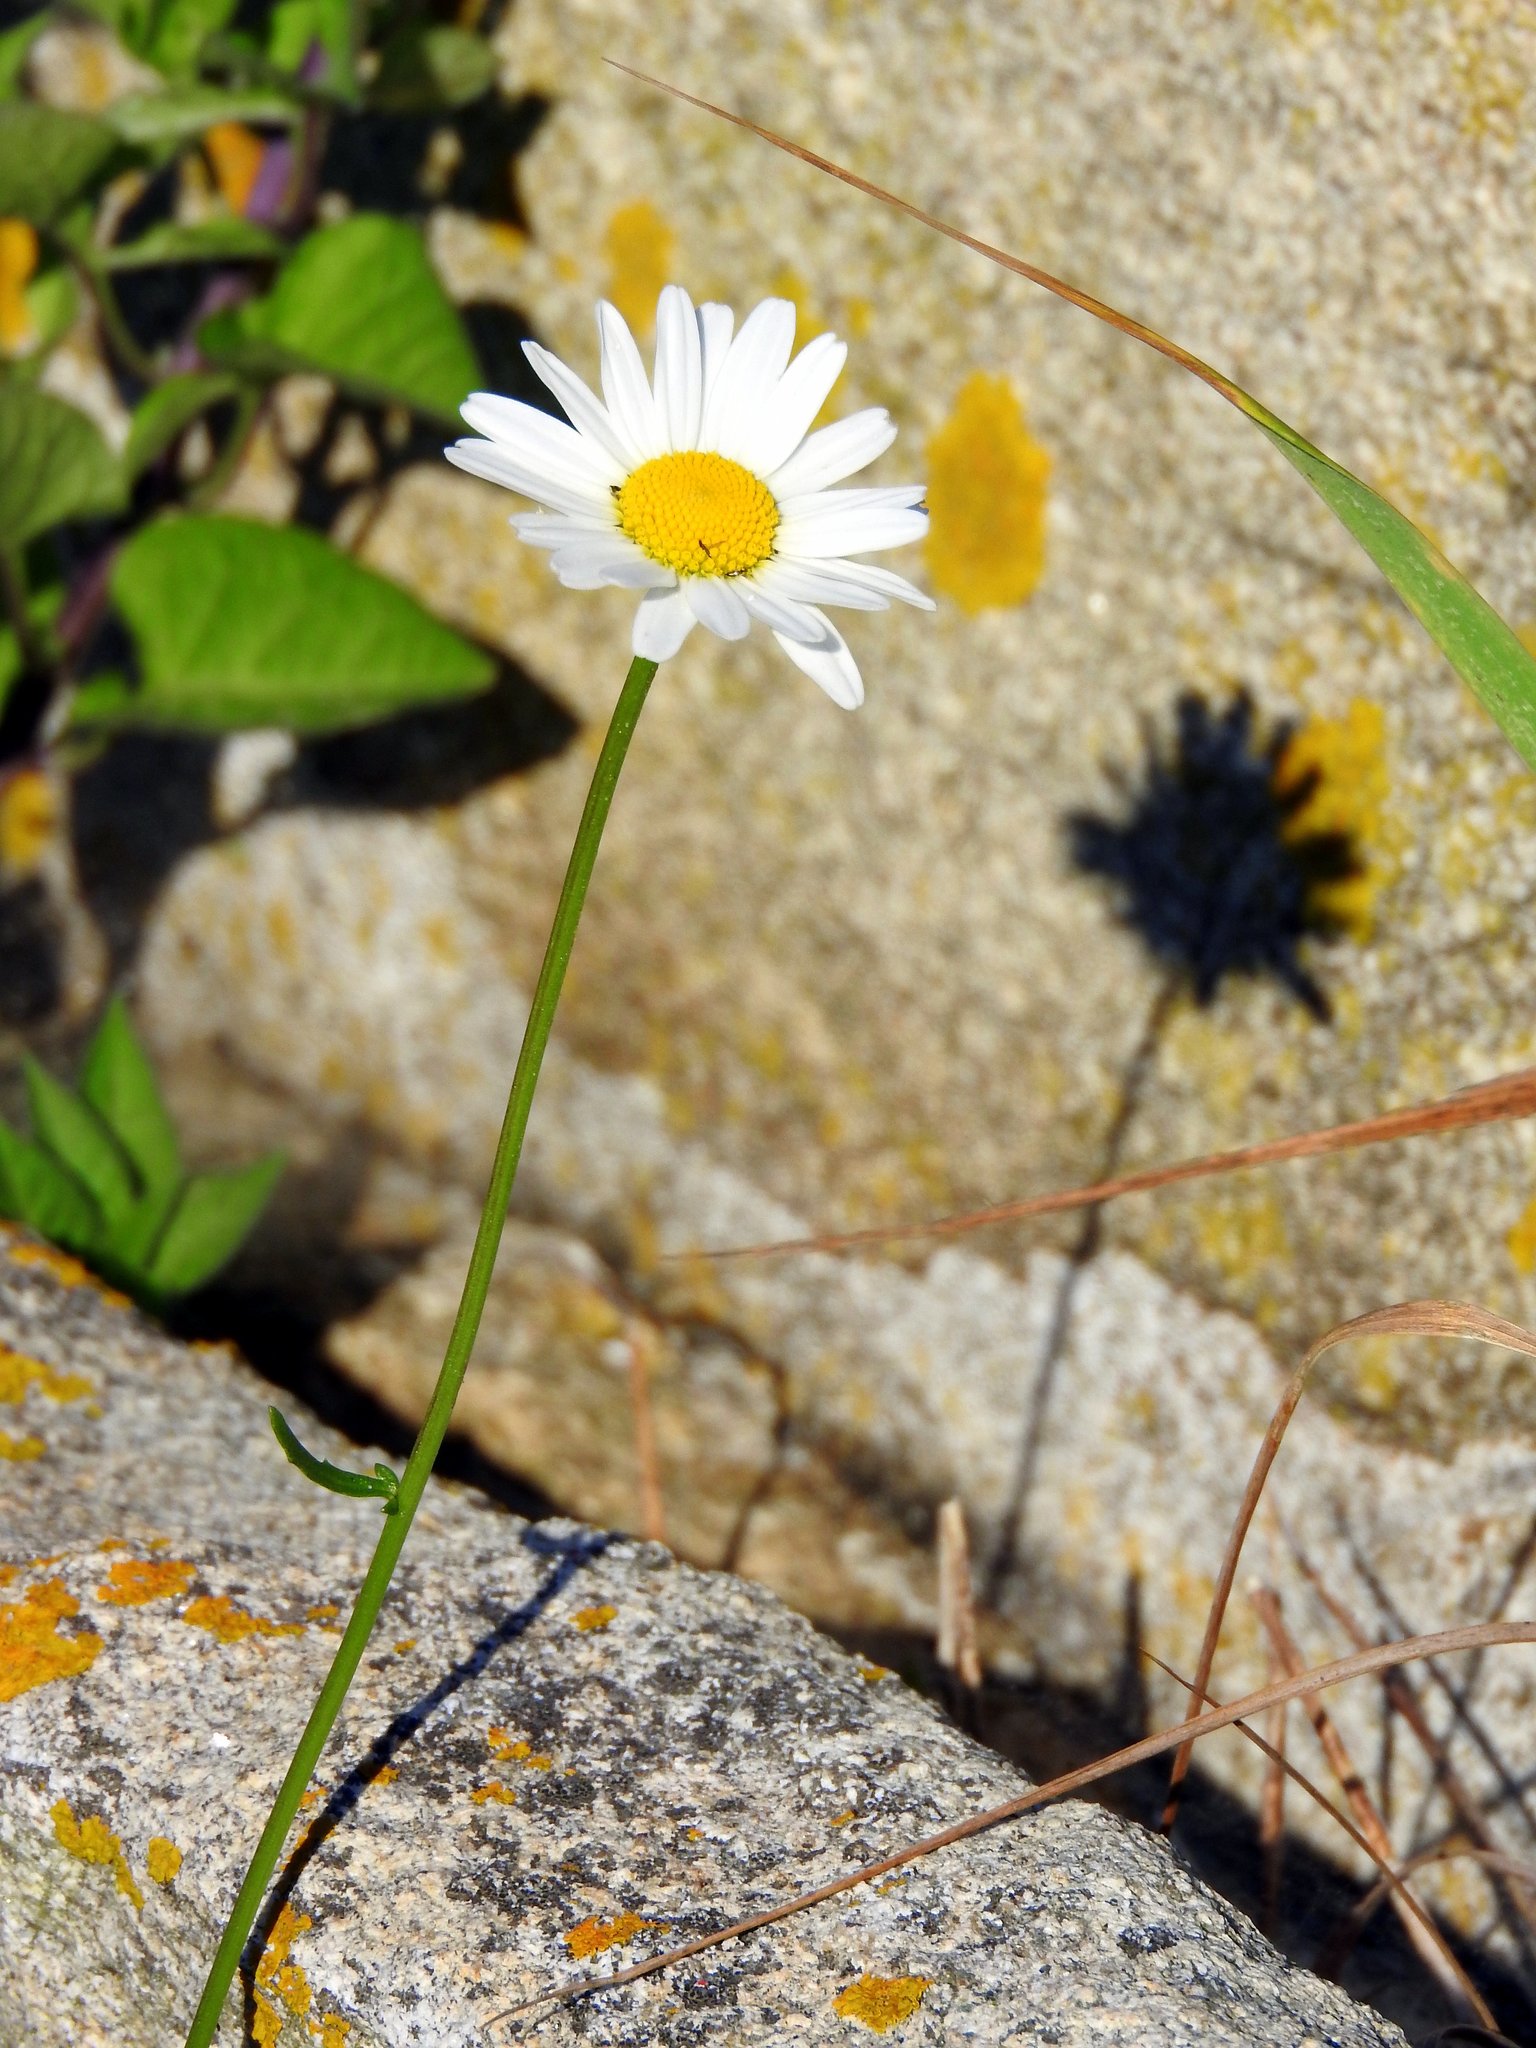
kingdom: Plantae
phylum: Tracheophyta
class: Magnoliopsida
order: Asterales
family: Asteraceae
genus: Leucanthemum
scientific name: Leucanthemum vulgare
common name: Oxeye daisy
